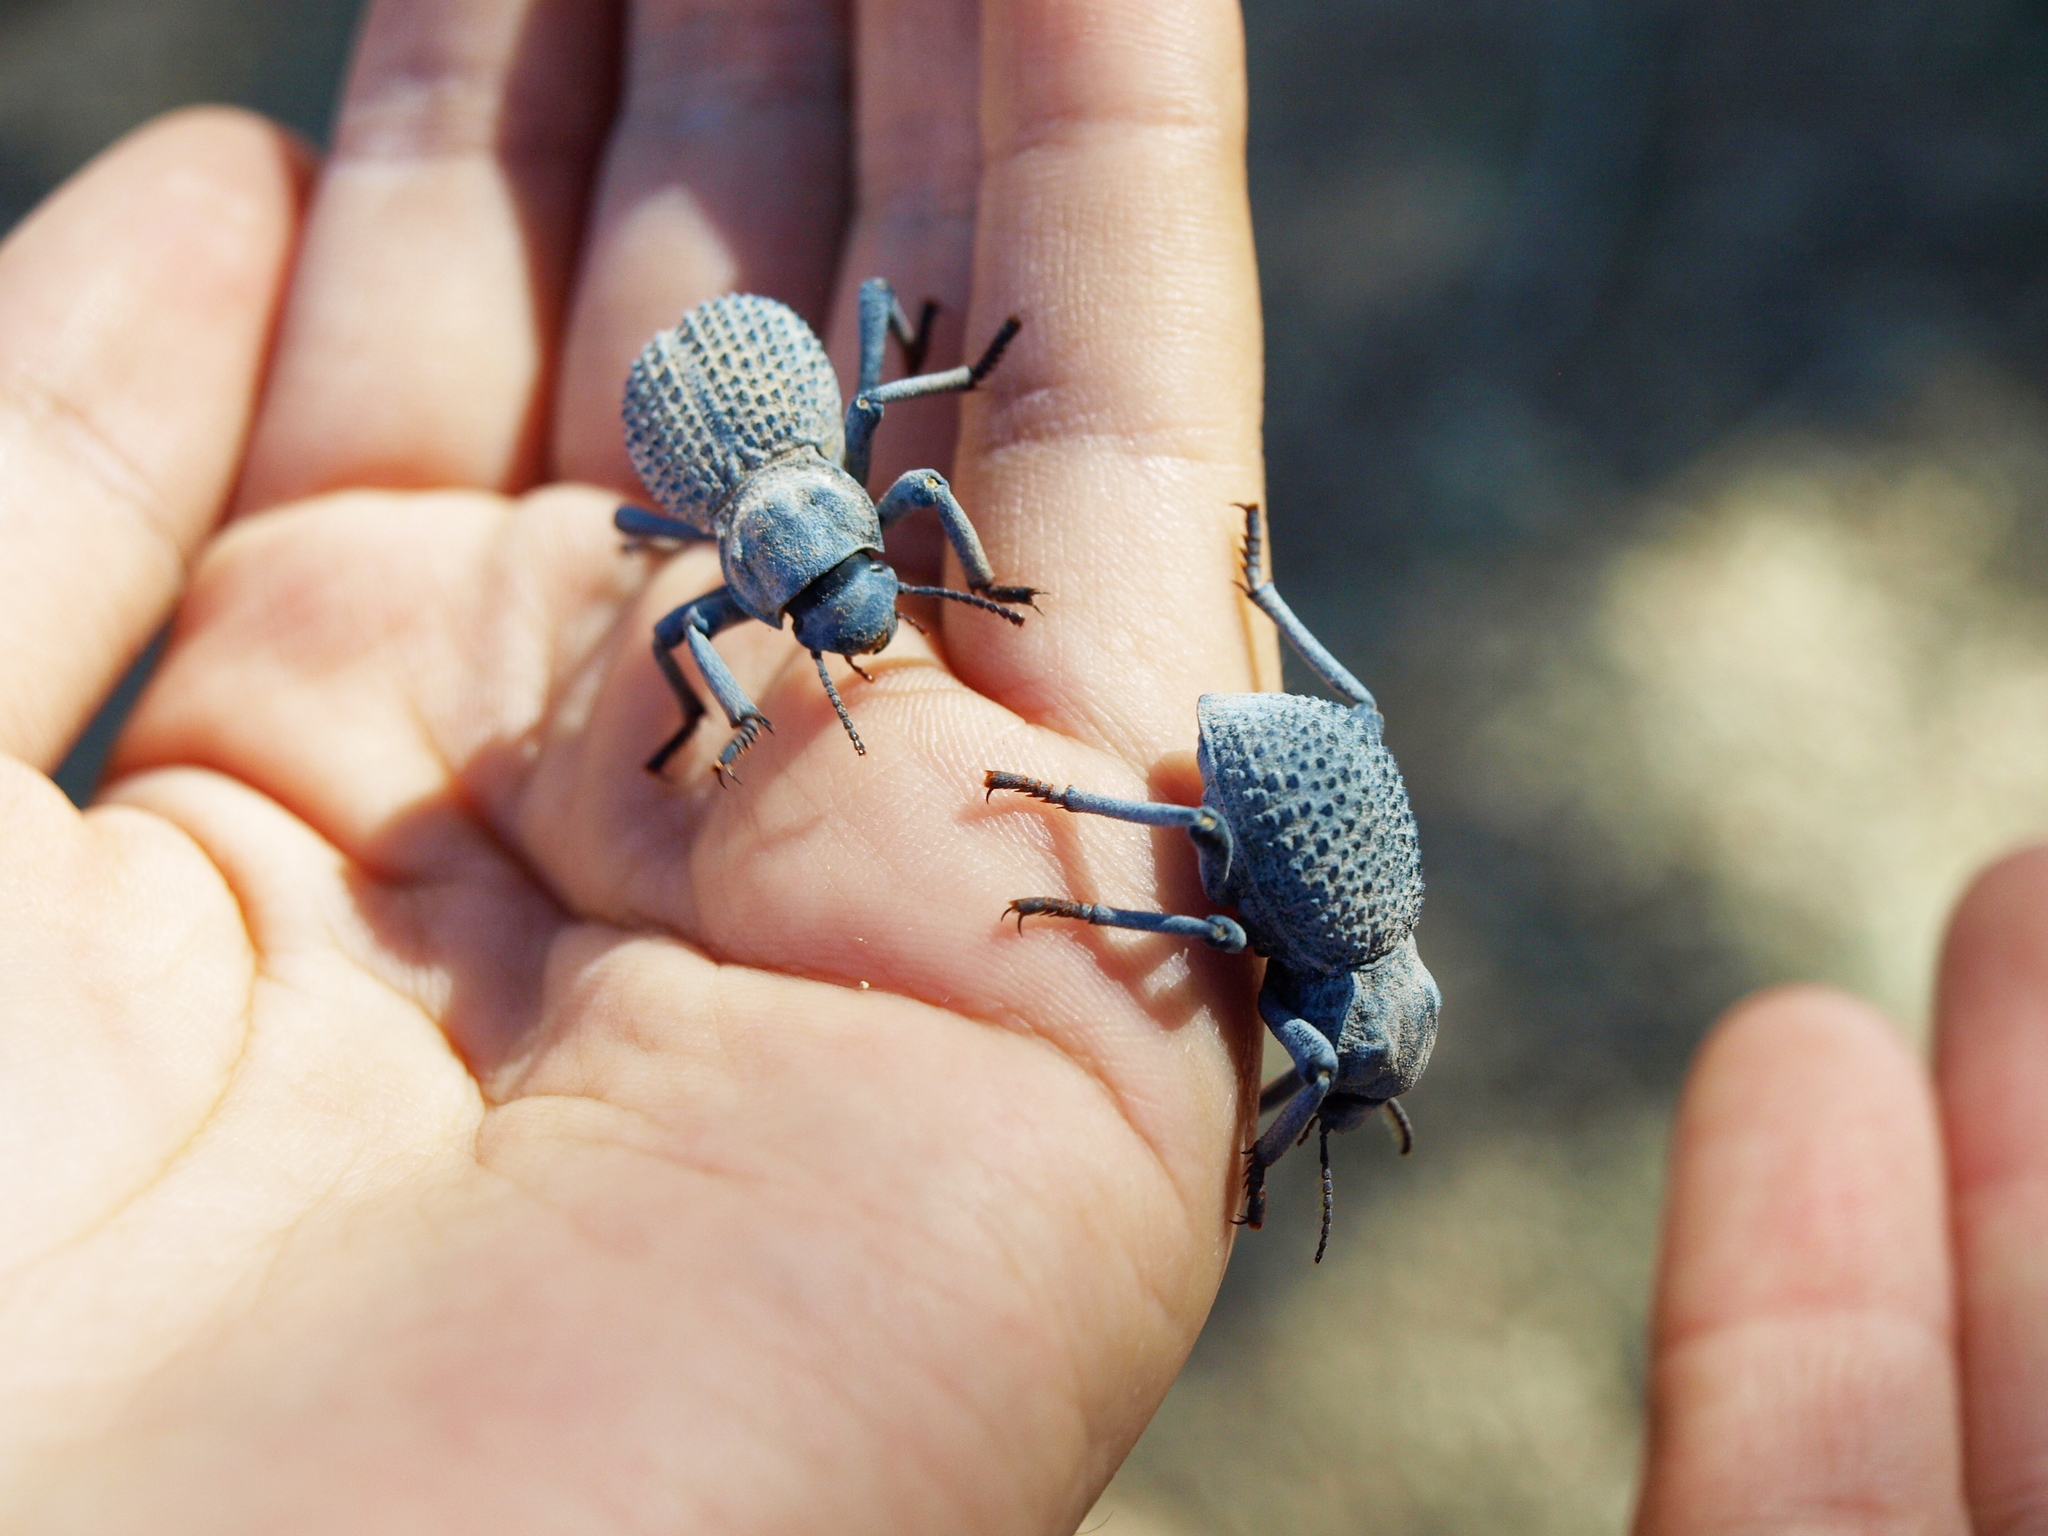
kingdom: Animalia
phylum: Arthropoda
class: Insecta
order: Coleoptera
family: Tenebrionidae
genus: Asbolus
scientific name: Asbolus verrucosus
